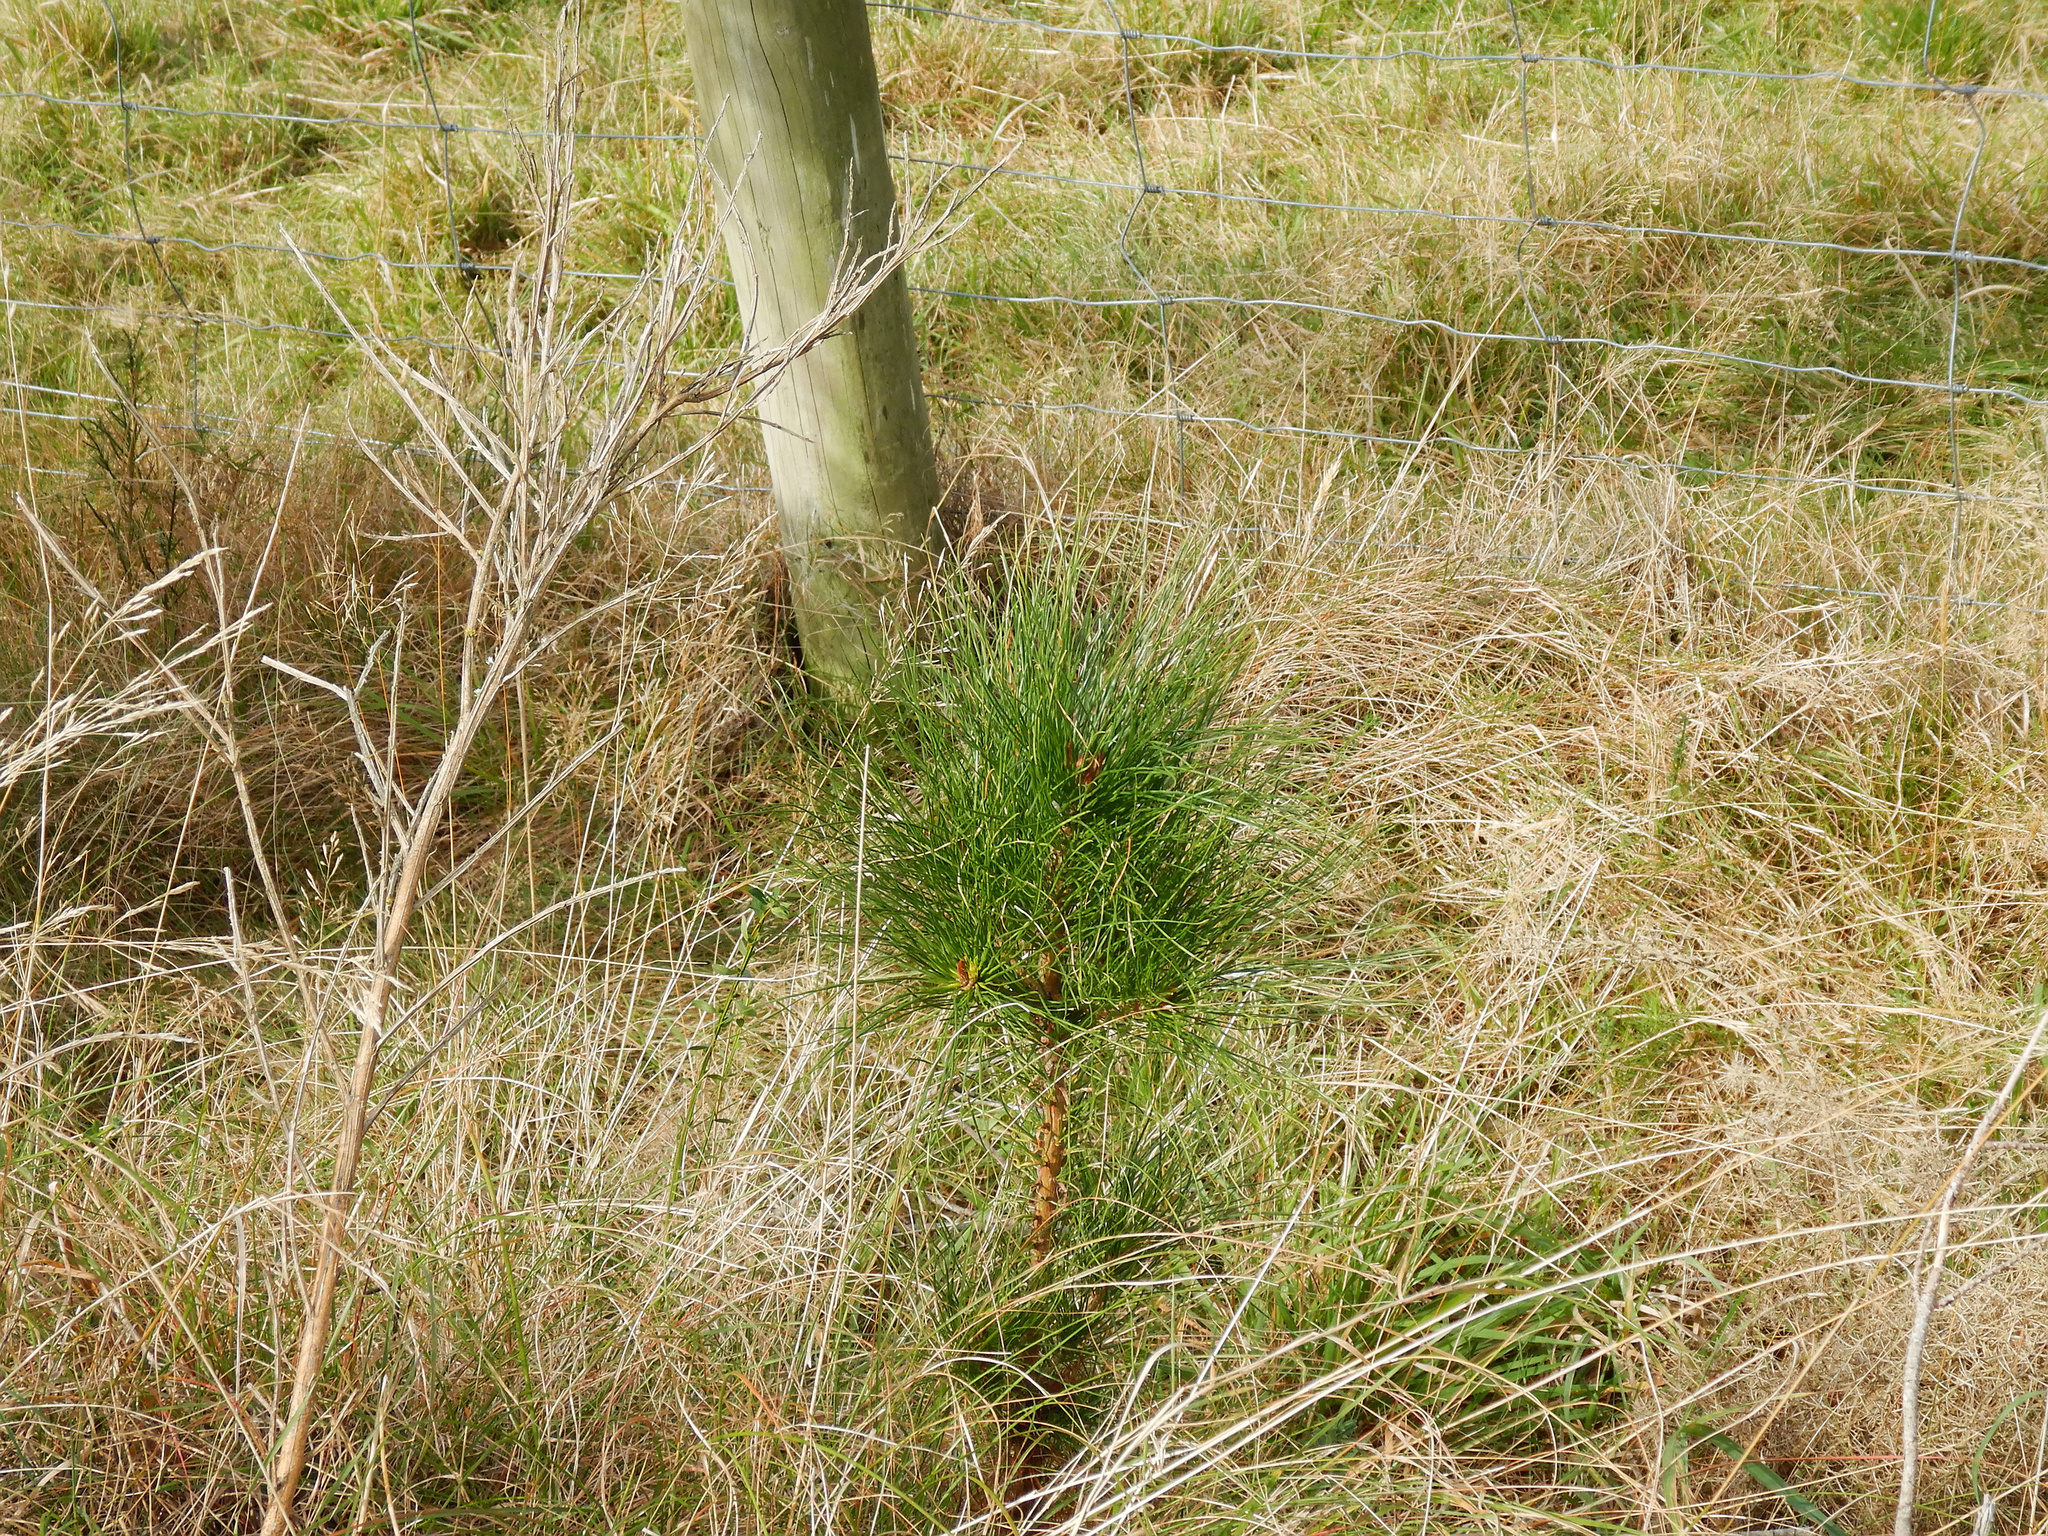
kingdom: Plantae
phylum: Tracheophyta
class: Pinopsida
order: Pinales
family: Pinaceae
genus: Pinus
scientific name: Pinus radiata
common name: Monterey pine
